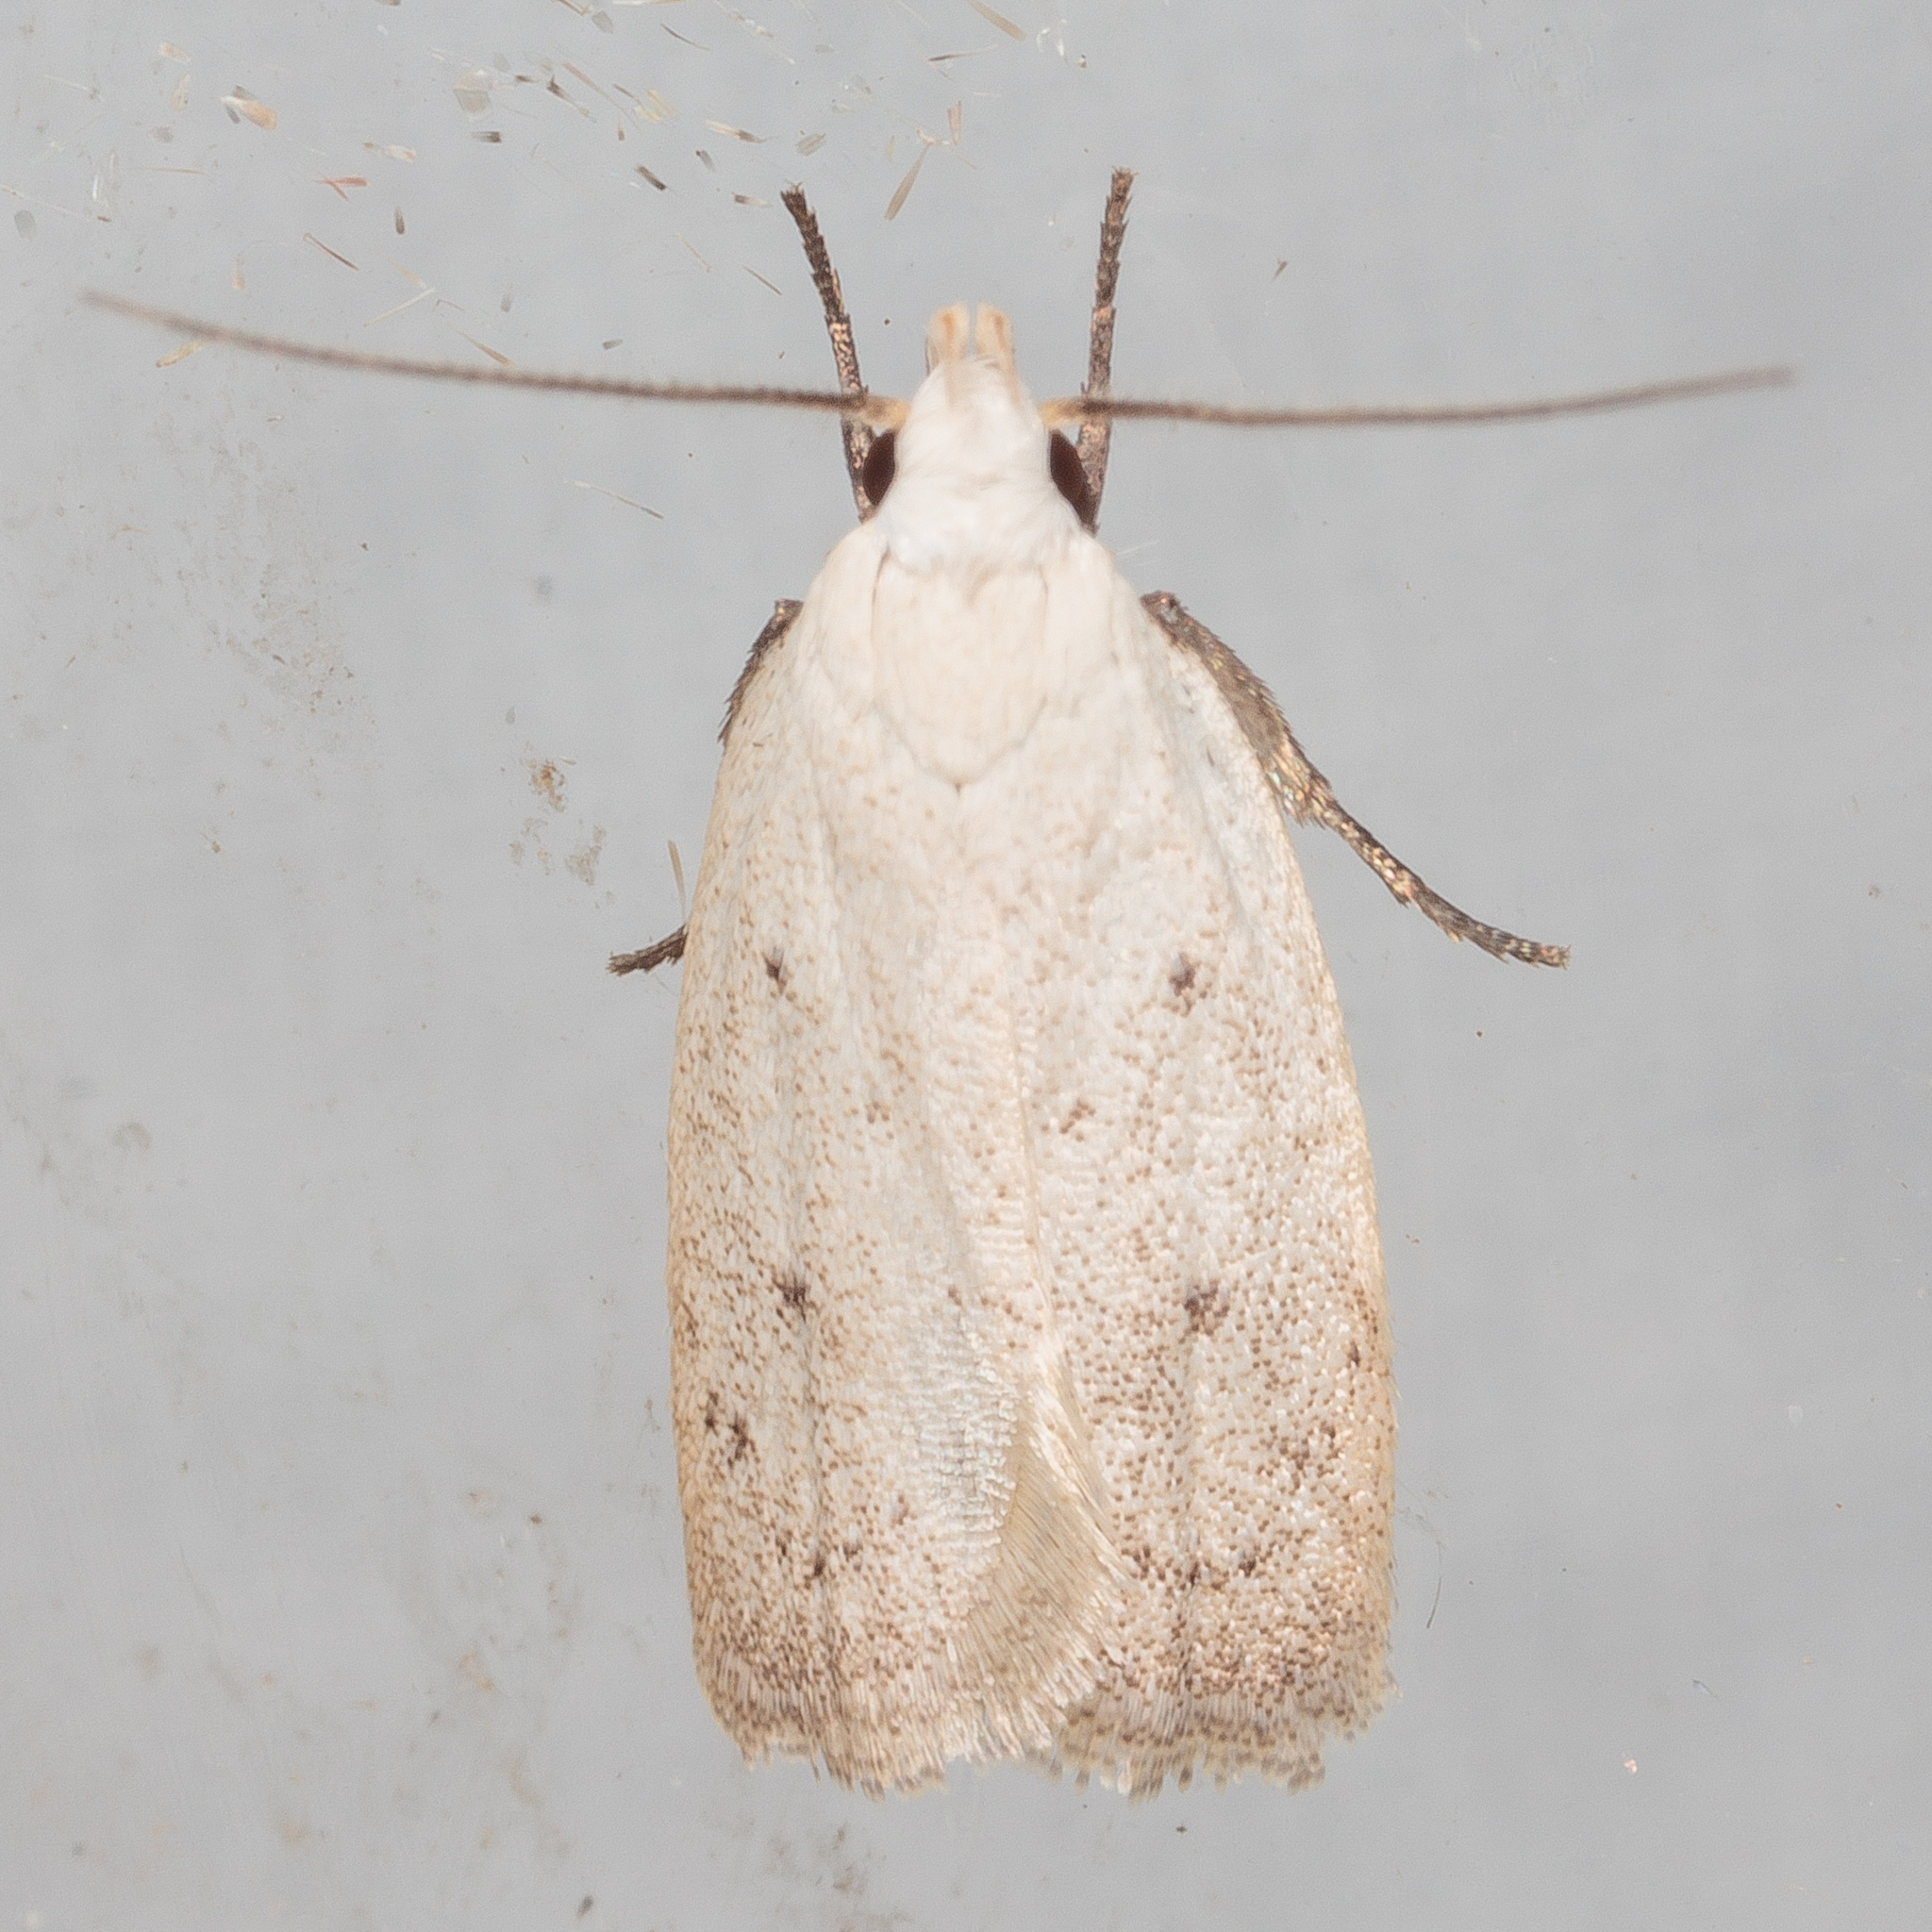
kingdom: Animalia
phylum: Arthropoda
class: Insecta
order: Lepidoptera
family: Oecophoridae
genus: Inga
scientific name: Inga cretacea
